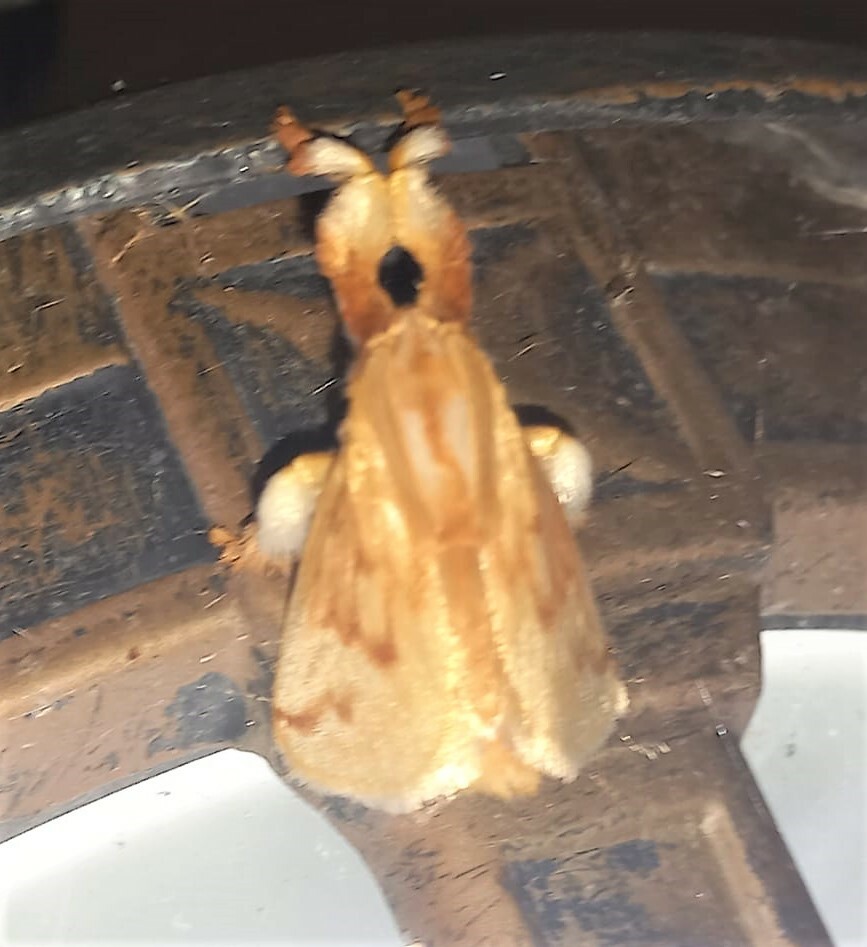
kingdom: Animalia
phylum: Arthropoda
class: Insecta
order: Lepidoptera
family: Limacodidae
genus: Perola
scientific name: Perola sericea
